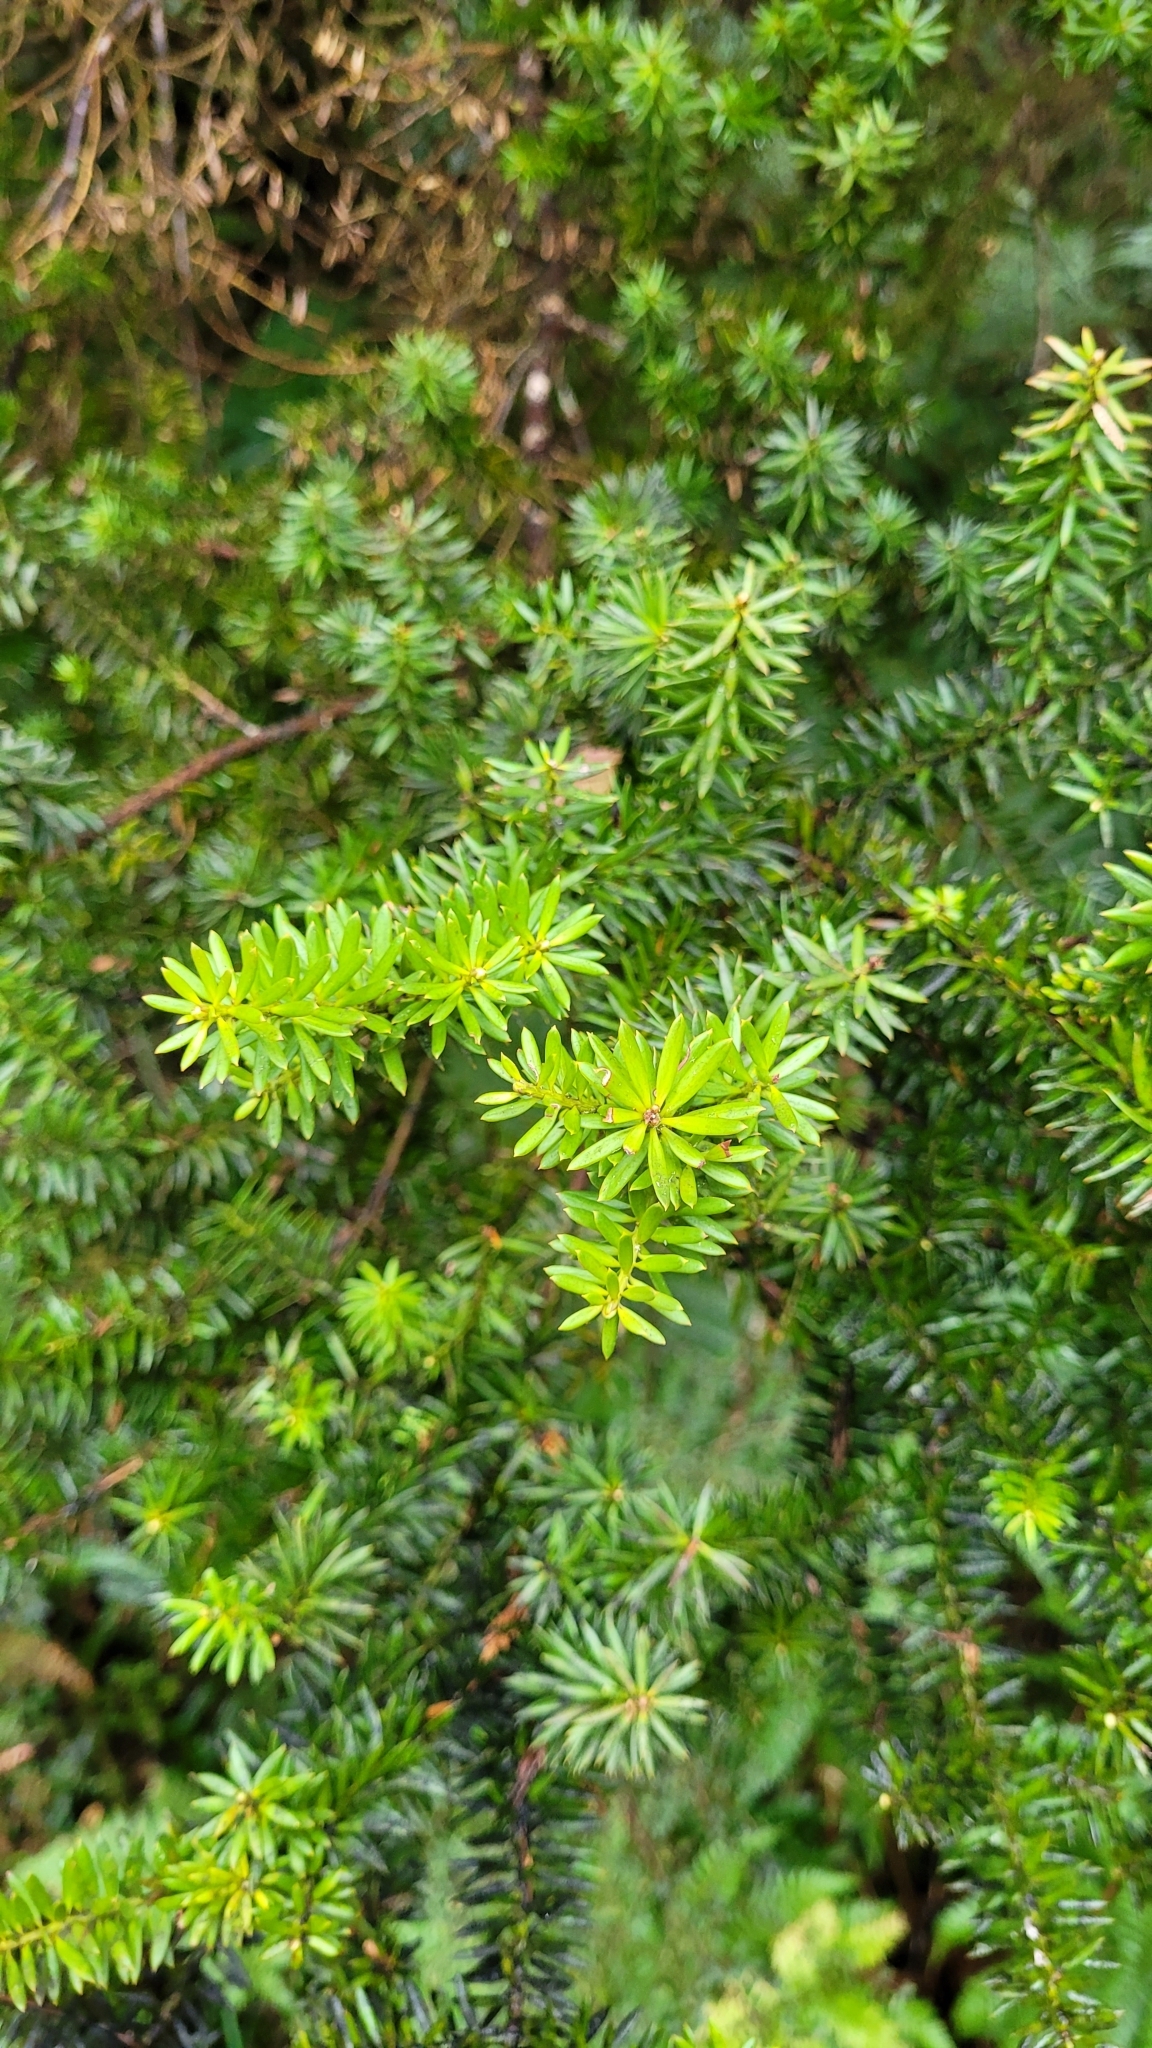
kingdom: Plantae
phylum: Tracheophyta
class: Pinopsida
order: Pinales
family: Podocarpaceae
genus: Podocarpus
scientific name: Podocarpus totara
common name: Totara
